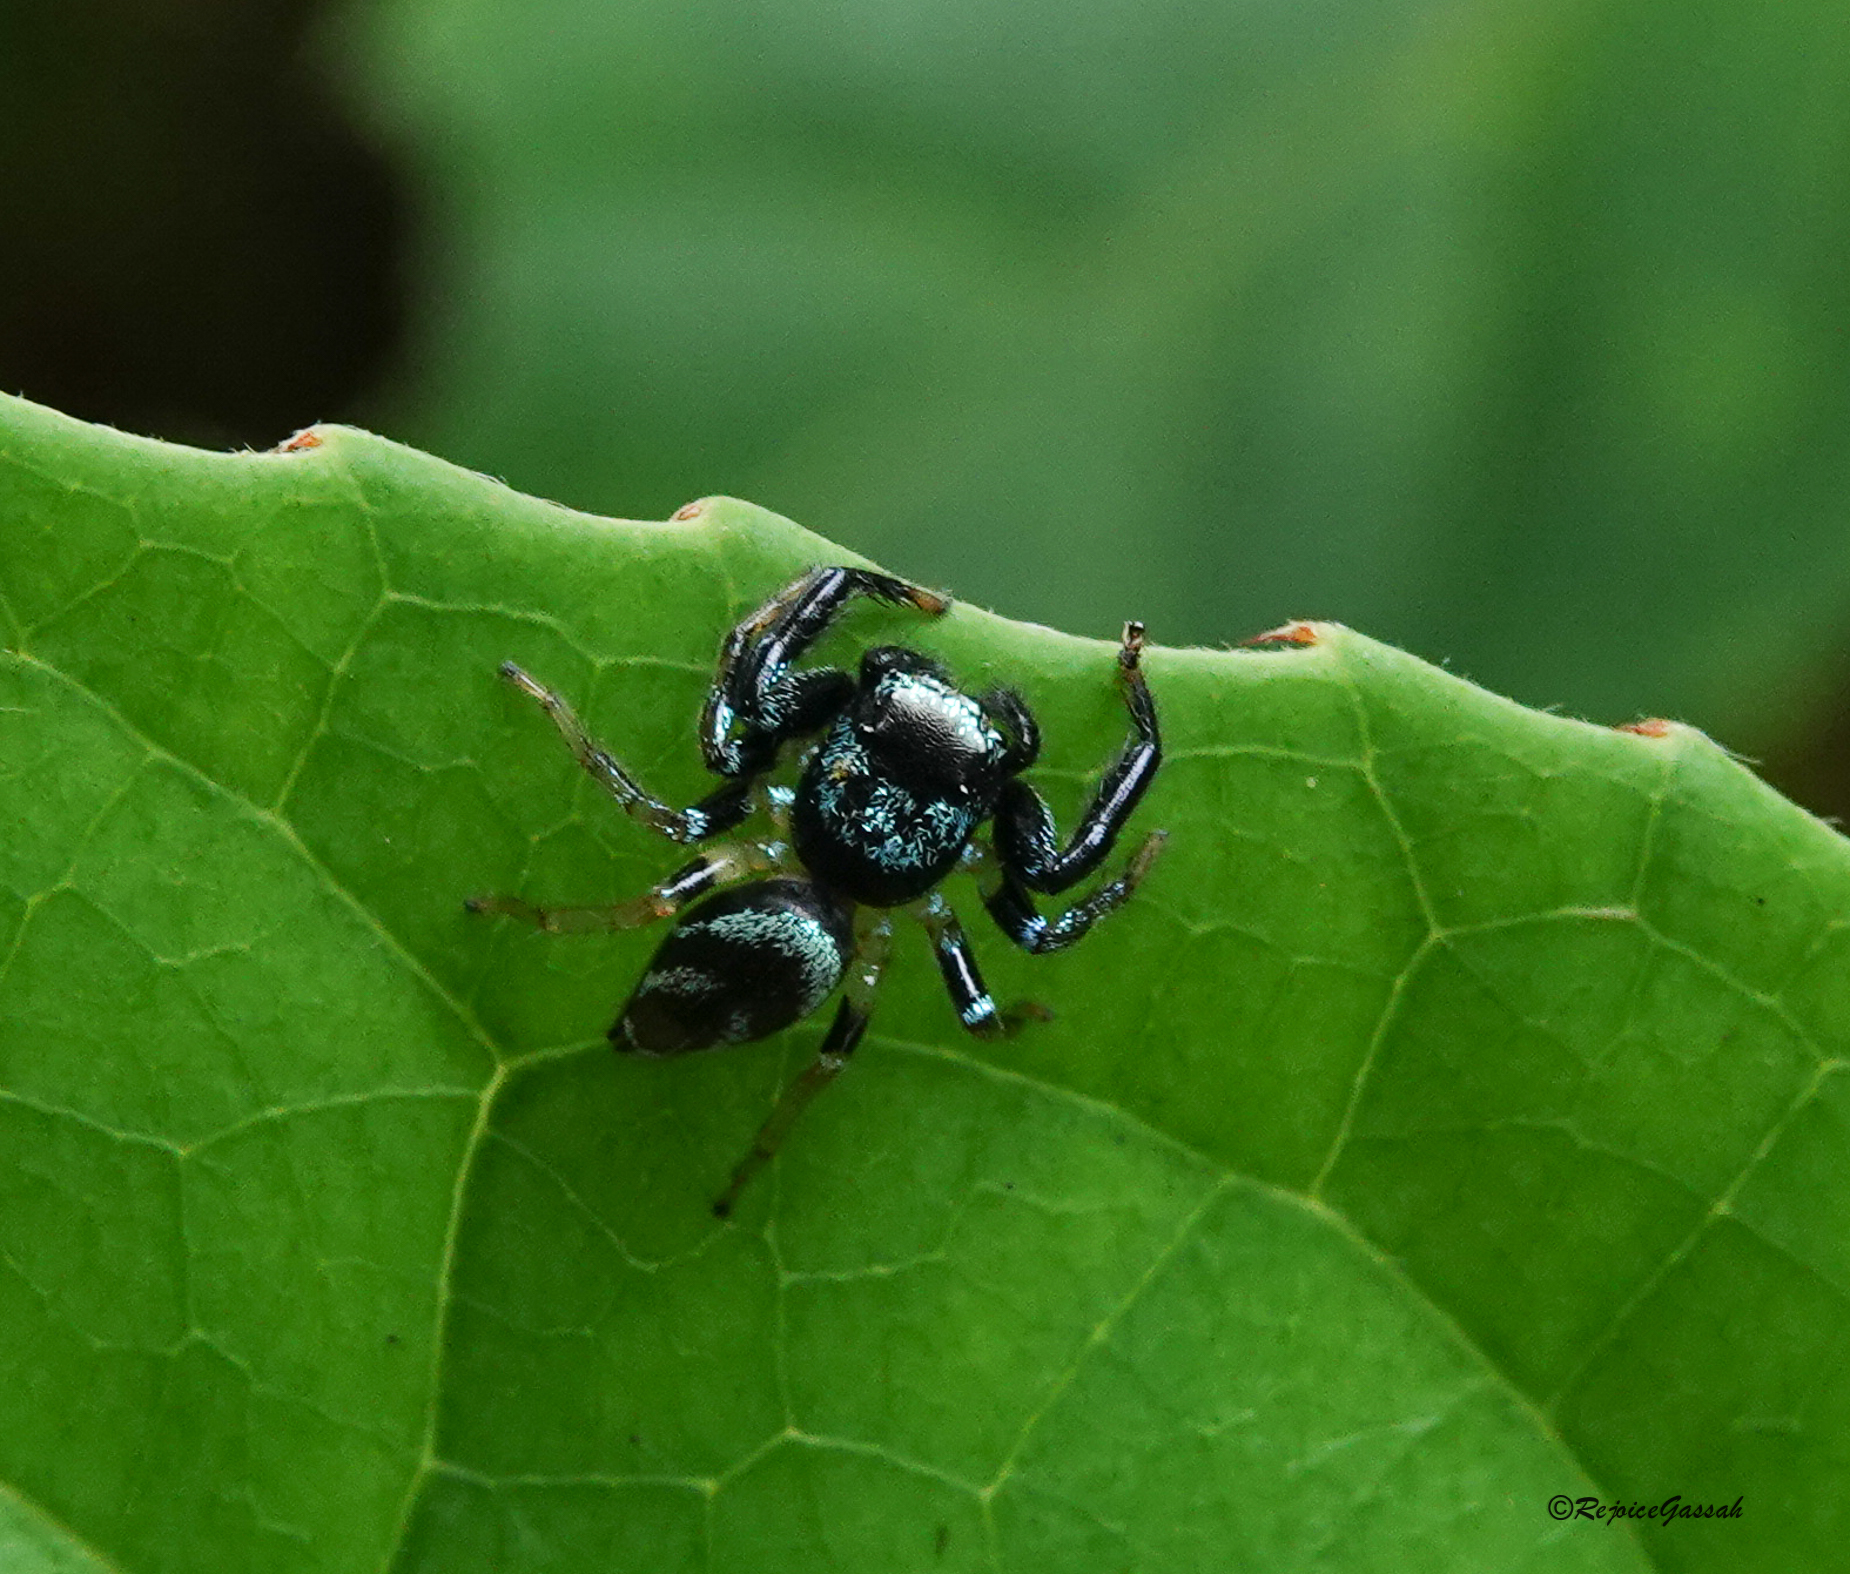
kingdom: Animalia
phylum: Arthropoda
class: Arachnida
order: Araneae
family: Salticidae
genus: Thiania
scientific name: Thiania bhamoensis
